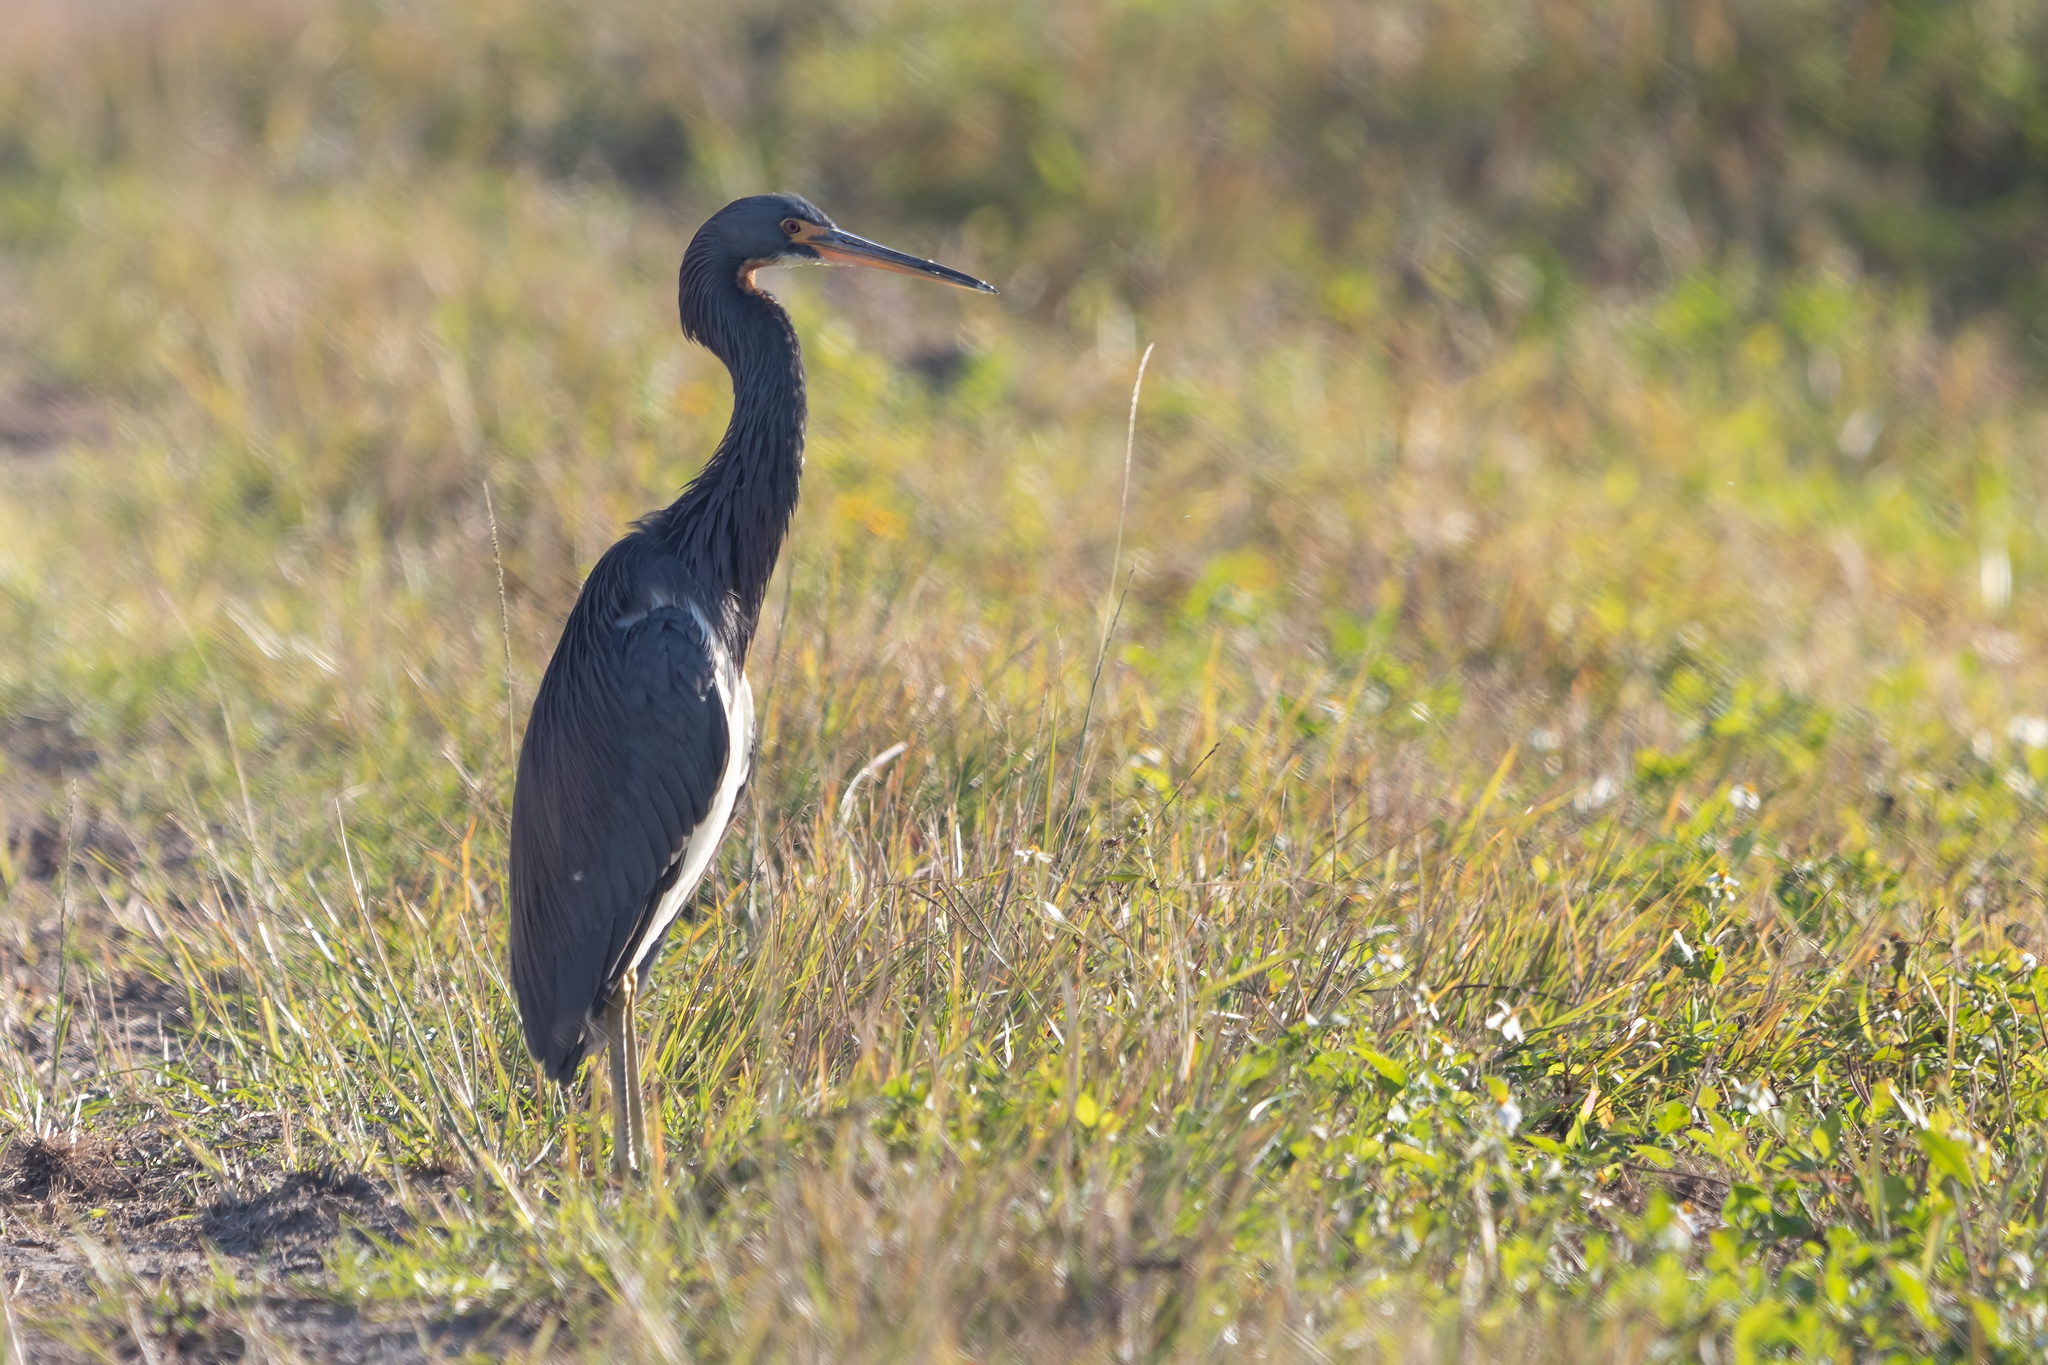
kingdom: Animalia
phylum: Chordata
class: Aves
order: Pelecaniformes
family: Ardeidae
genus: Egretta
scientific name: Egretta tricolor
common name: Tricolored heron
